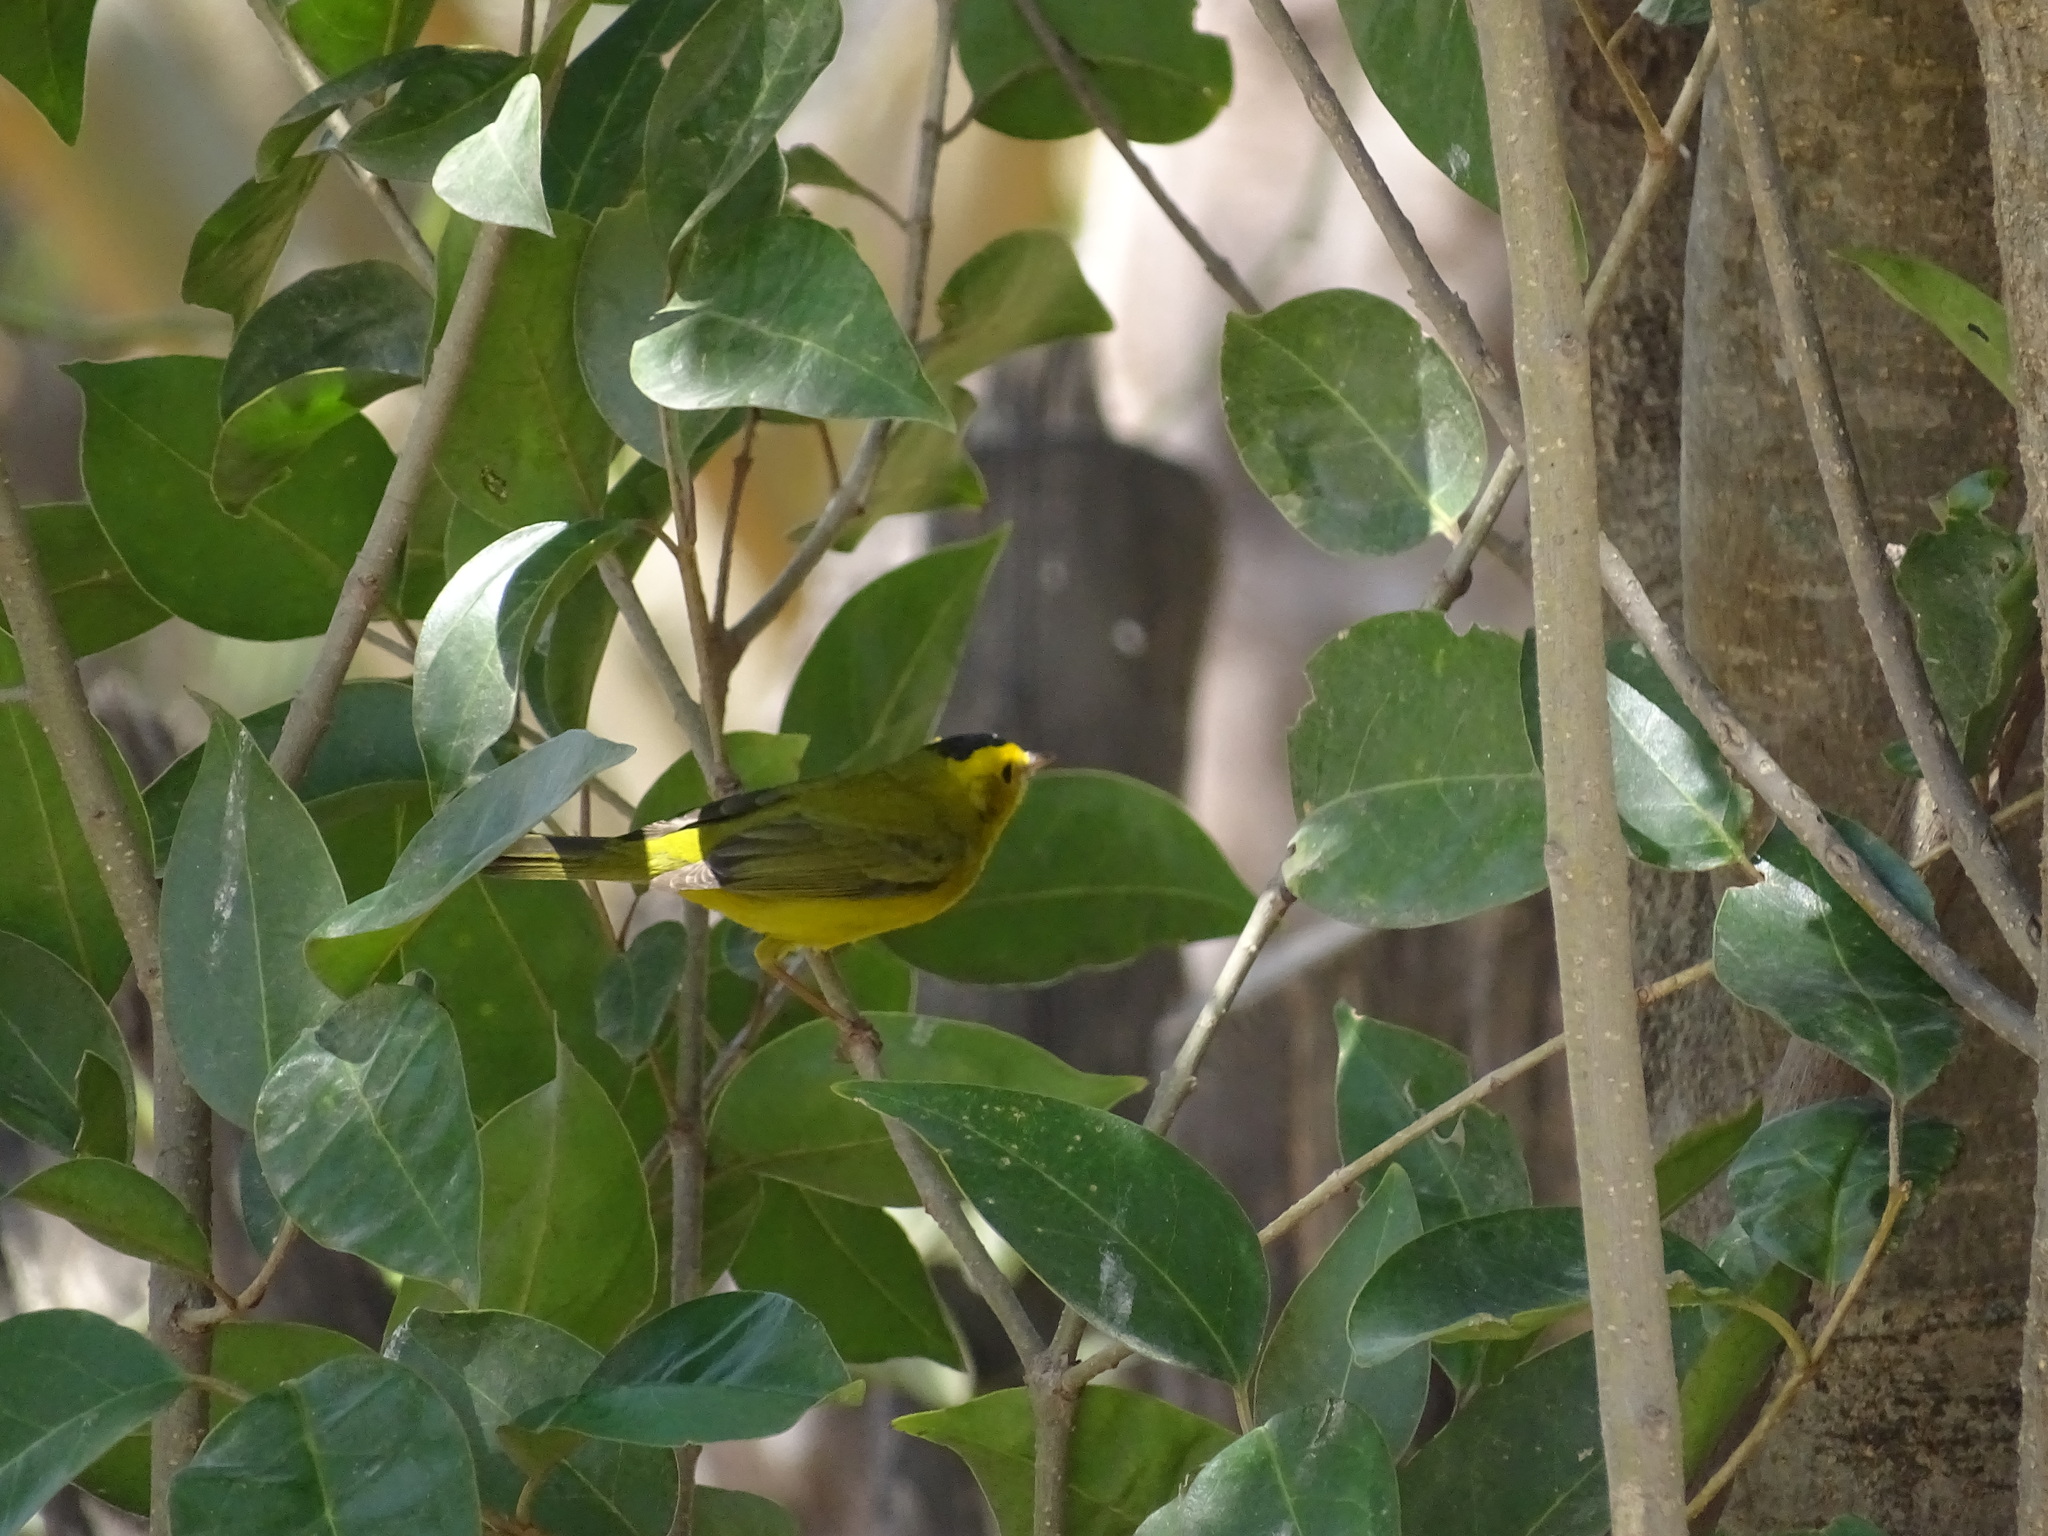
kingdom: Animalia
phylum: Chordata
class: Aves
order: Passeriformes
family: Parulidae
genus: Cardellina
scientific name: Cardellina pusilla
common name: Wilson's warbler
